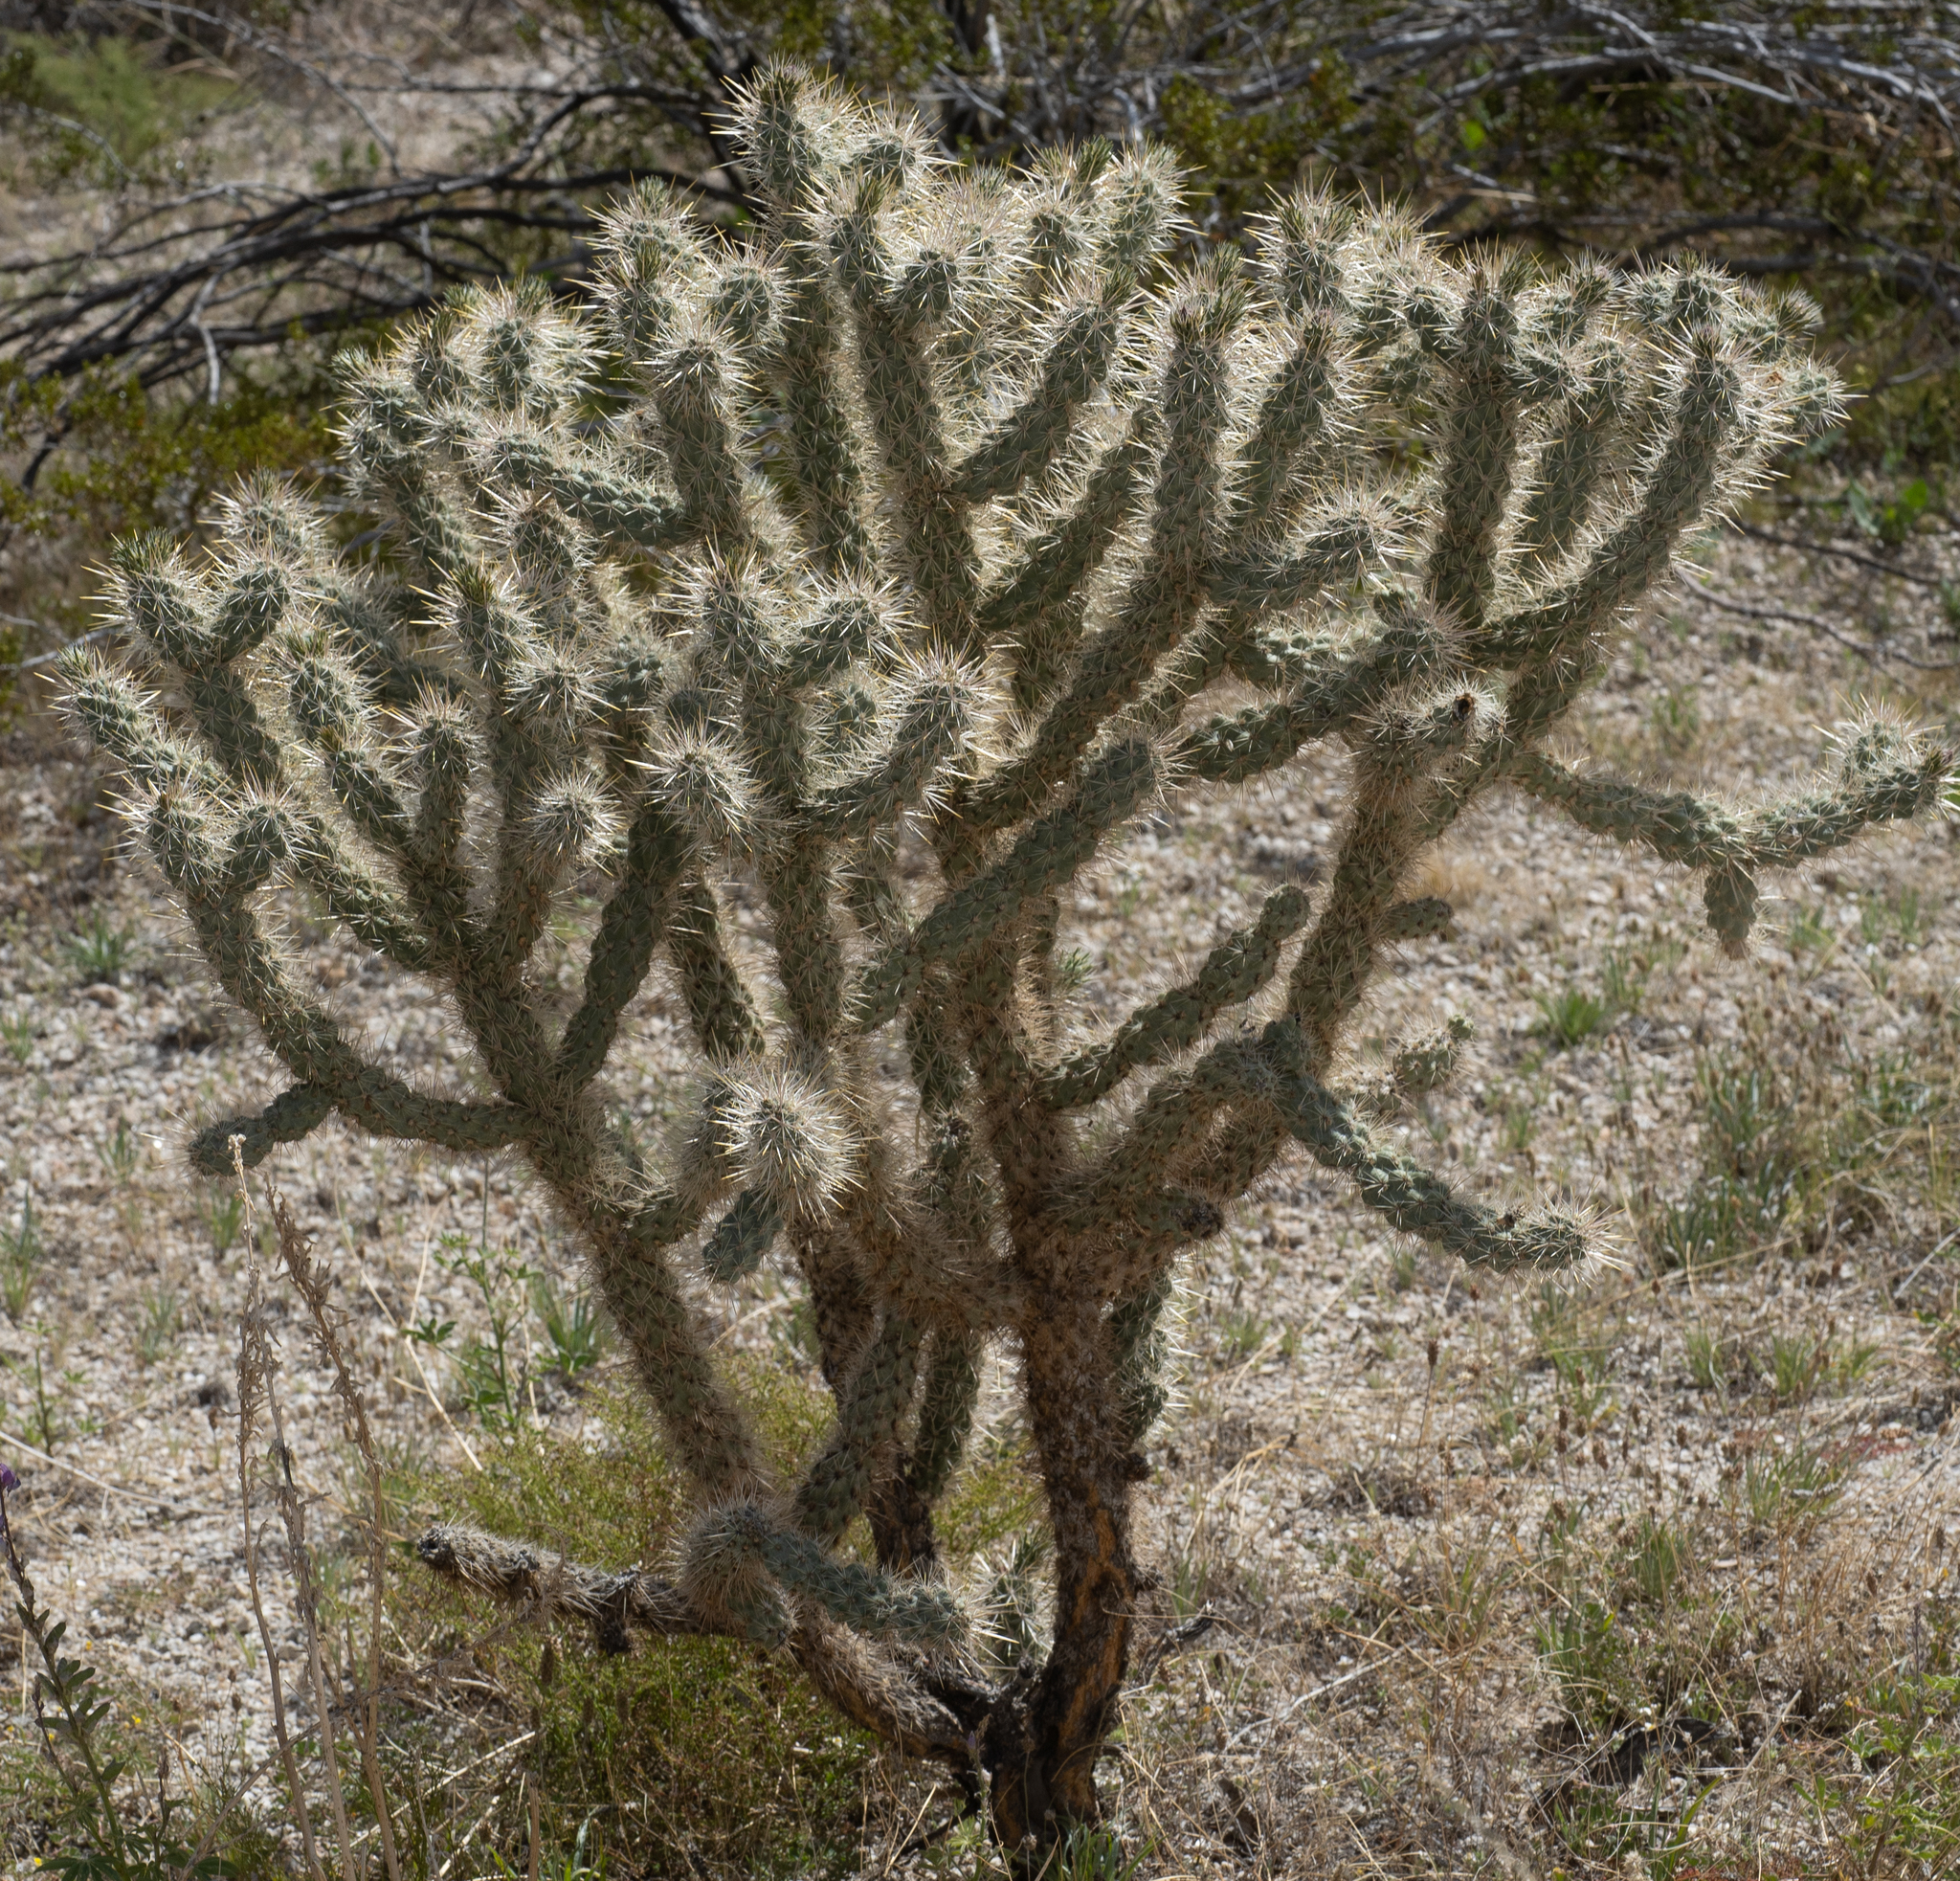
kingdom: Plantae
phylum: Tracheophyta
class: Magnoliopsida
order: Caryophyllales
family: Cactaceae
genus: Cylindropuntia
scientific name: Cylindropuntia echinocarpa
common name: Ground cholla
